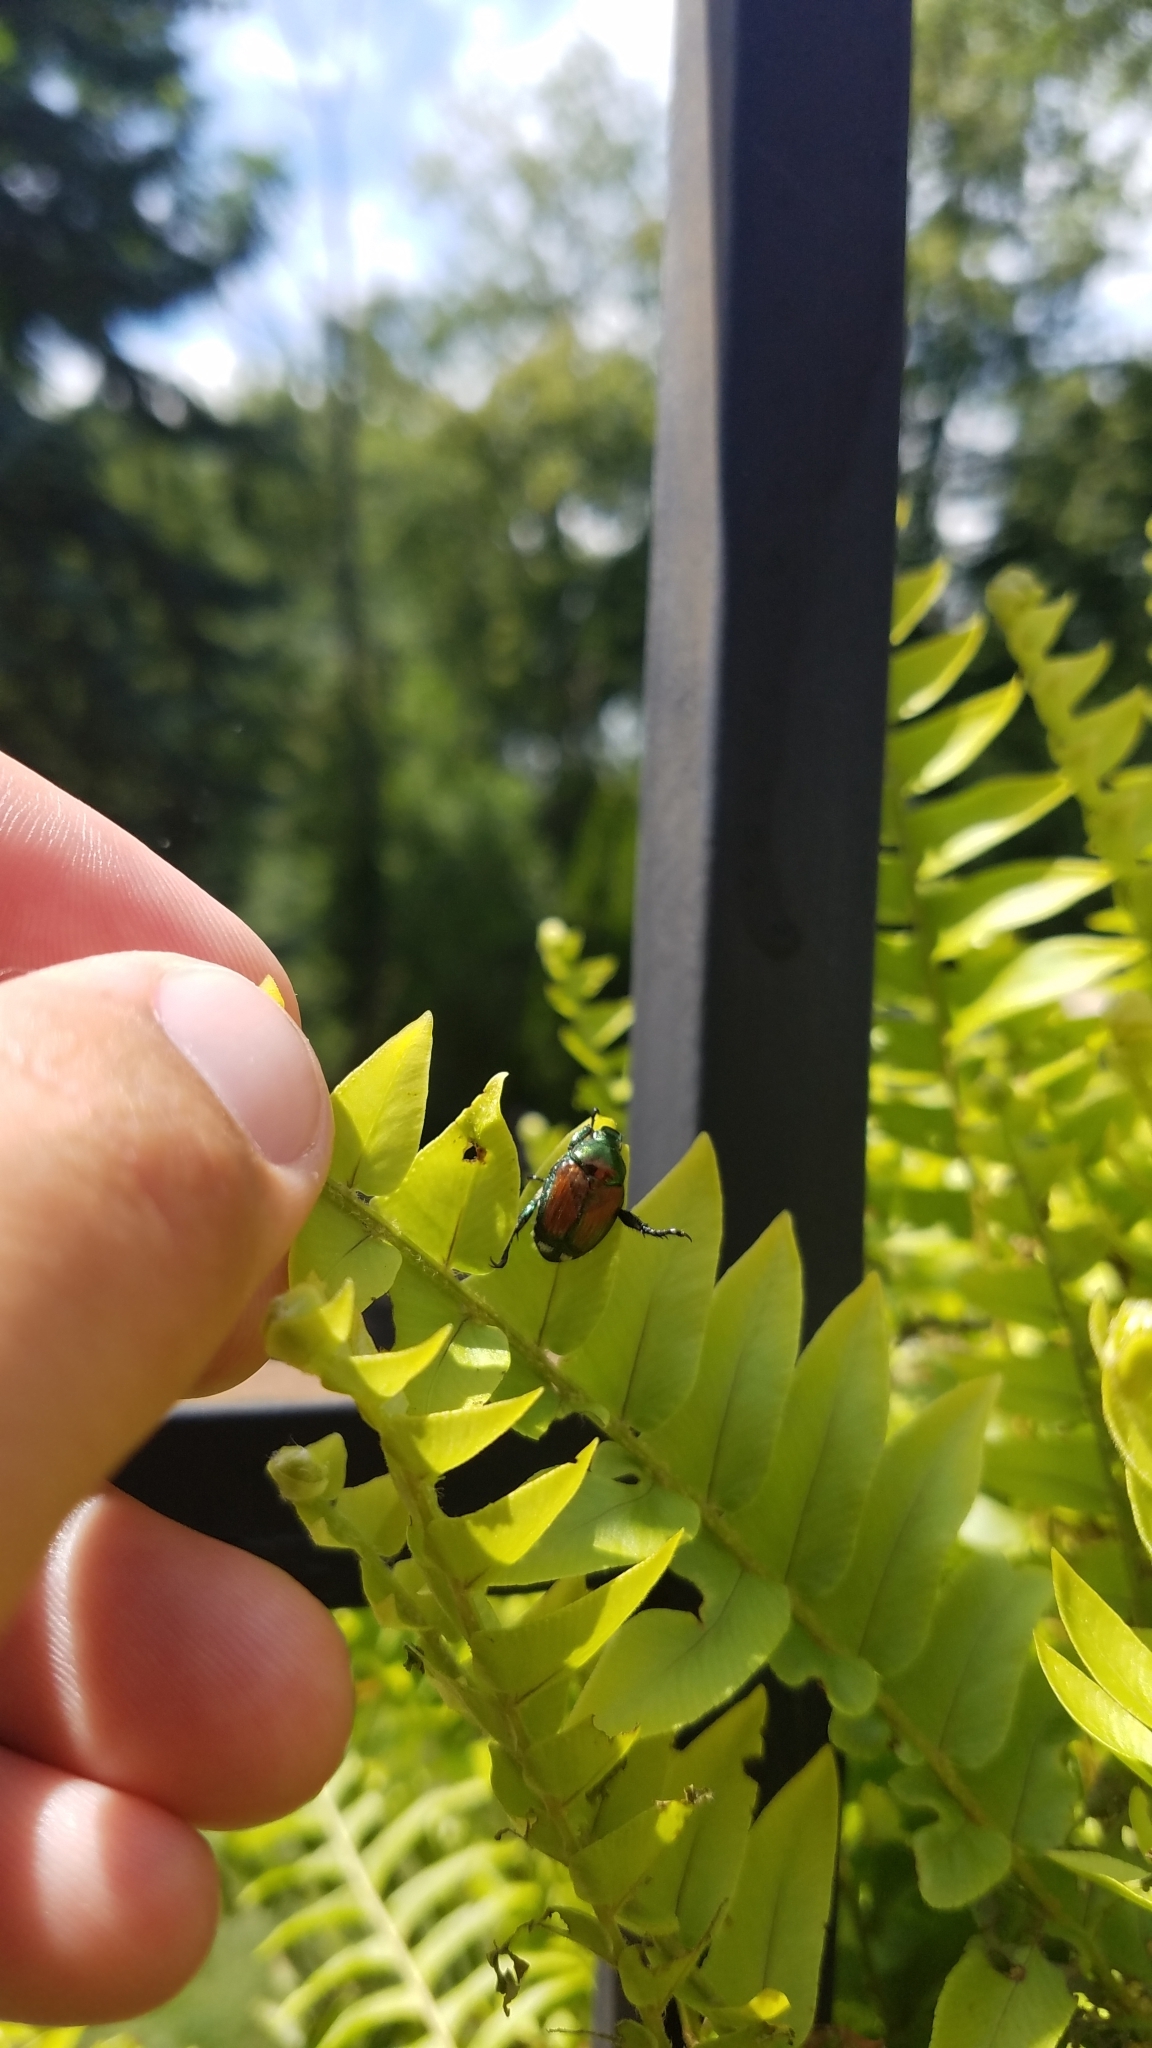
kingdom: Animalia
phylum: Arthropoda
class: Insecta
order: Coleoptera
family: Scarabaeidae
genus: Popillia
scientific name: Popillia japonica
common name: Japanese beetle
